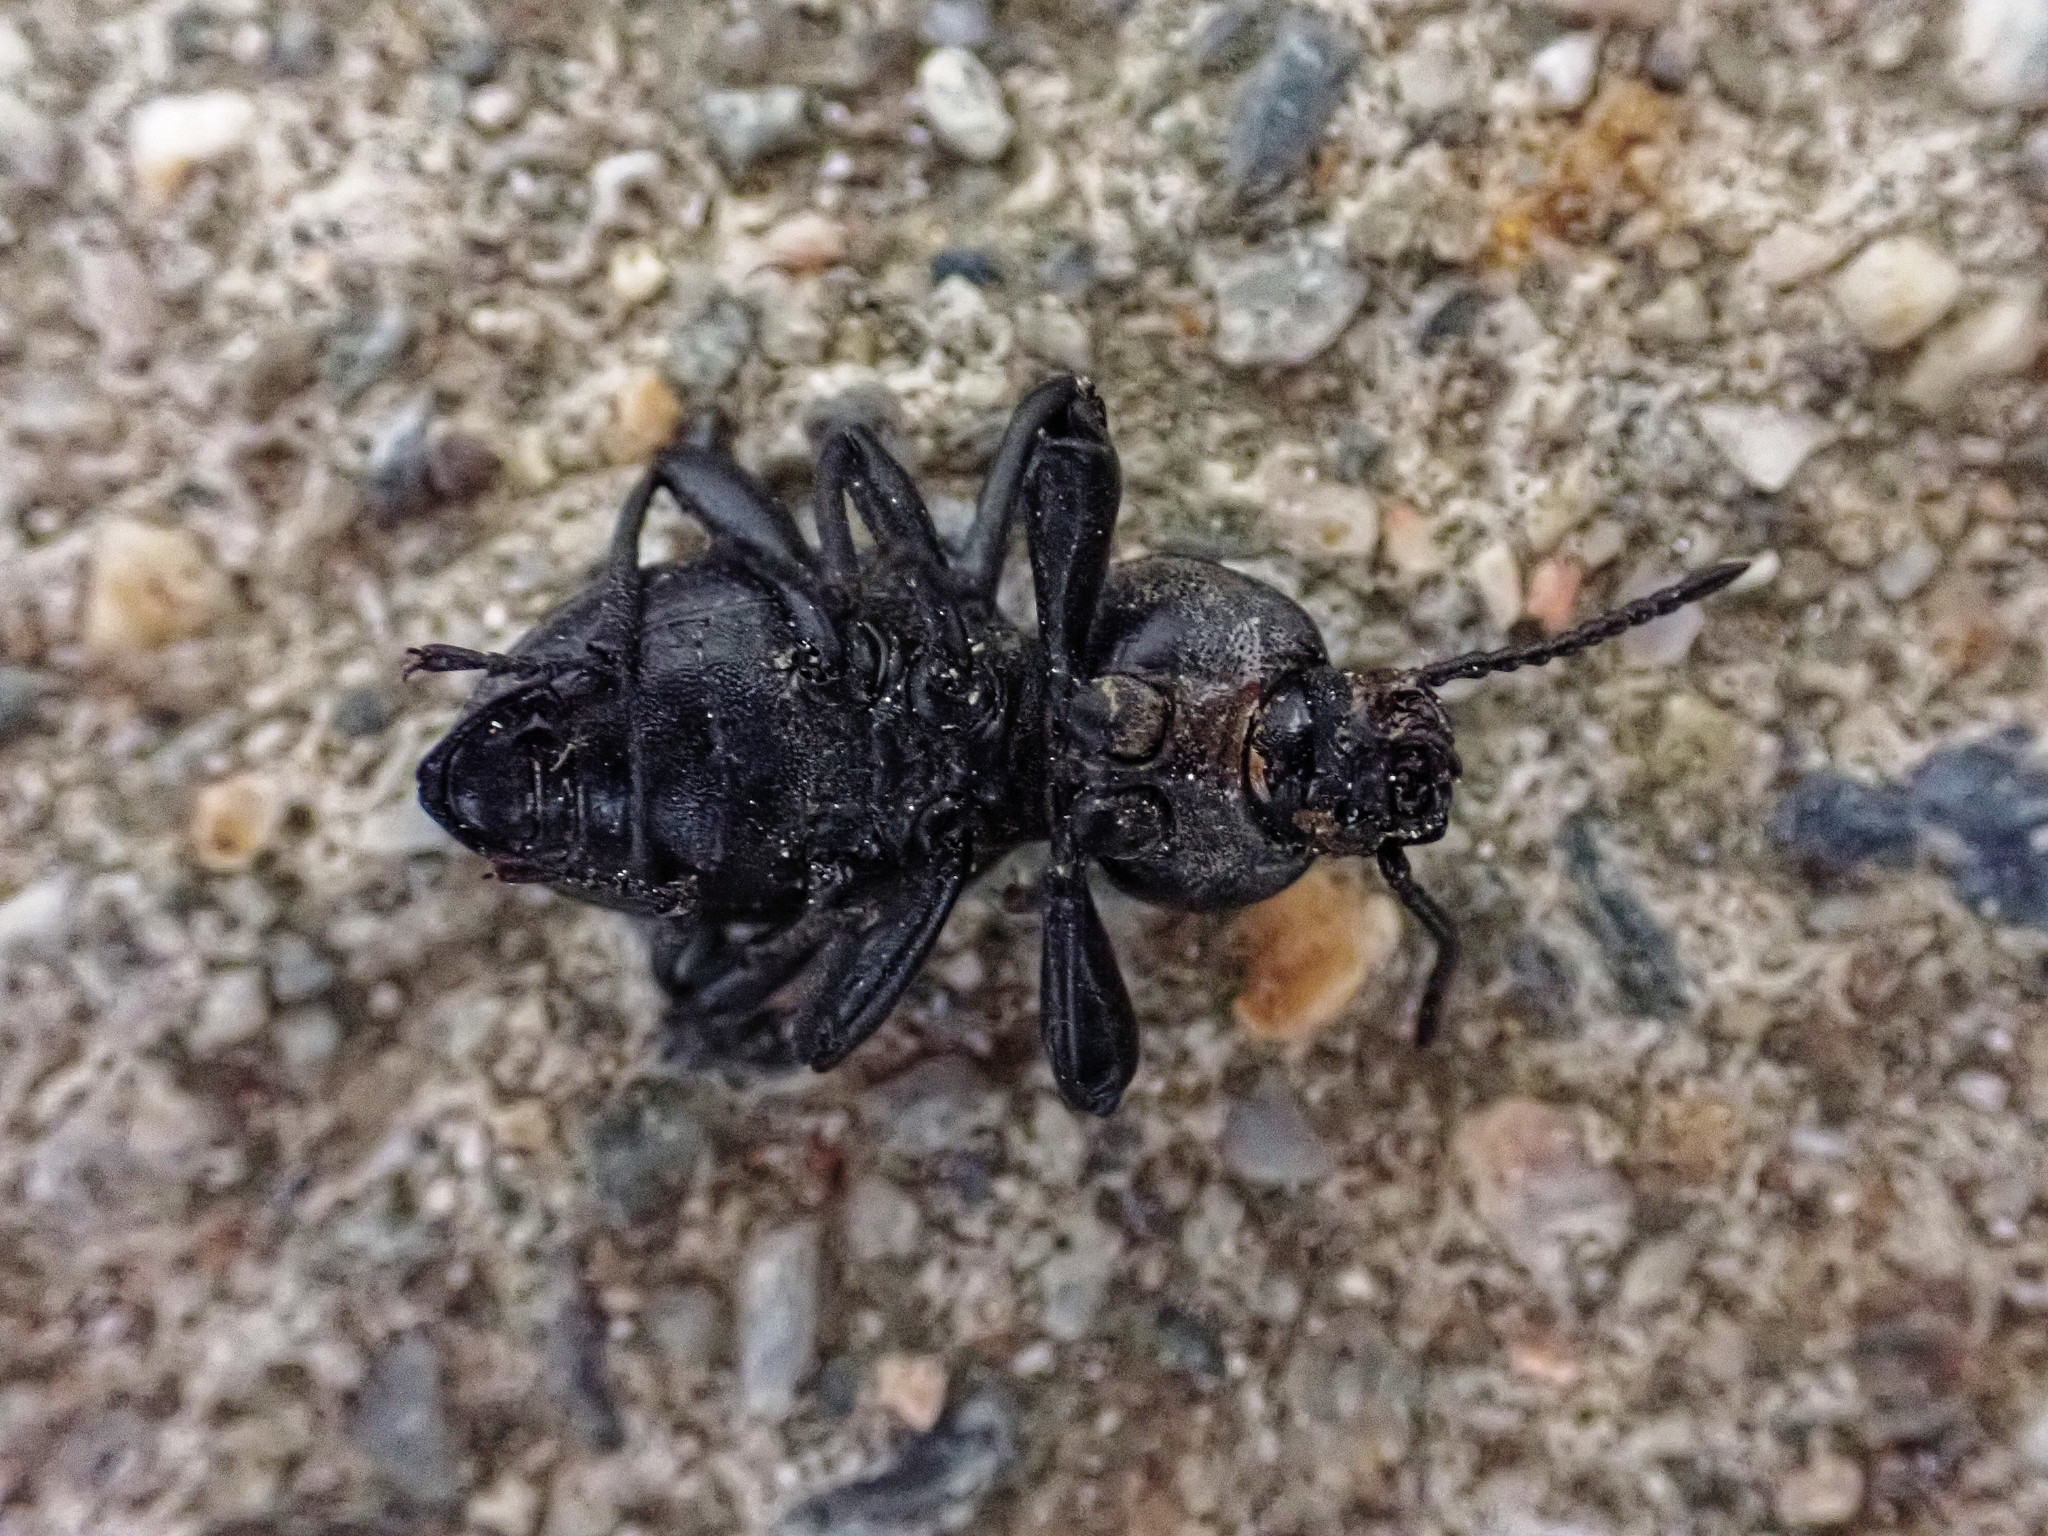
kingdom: Animalia
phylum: Arthropoda
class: Insecta
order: Coleoptera
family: Tenebrionidae
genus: Scaurus
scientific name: Scaurus striatus
